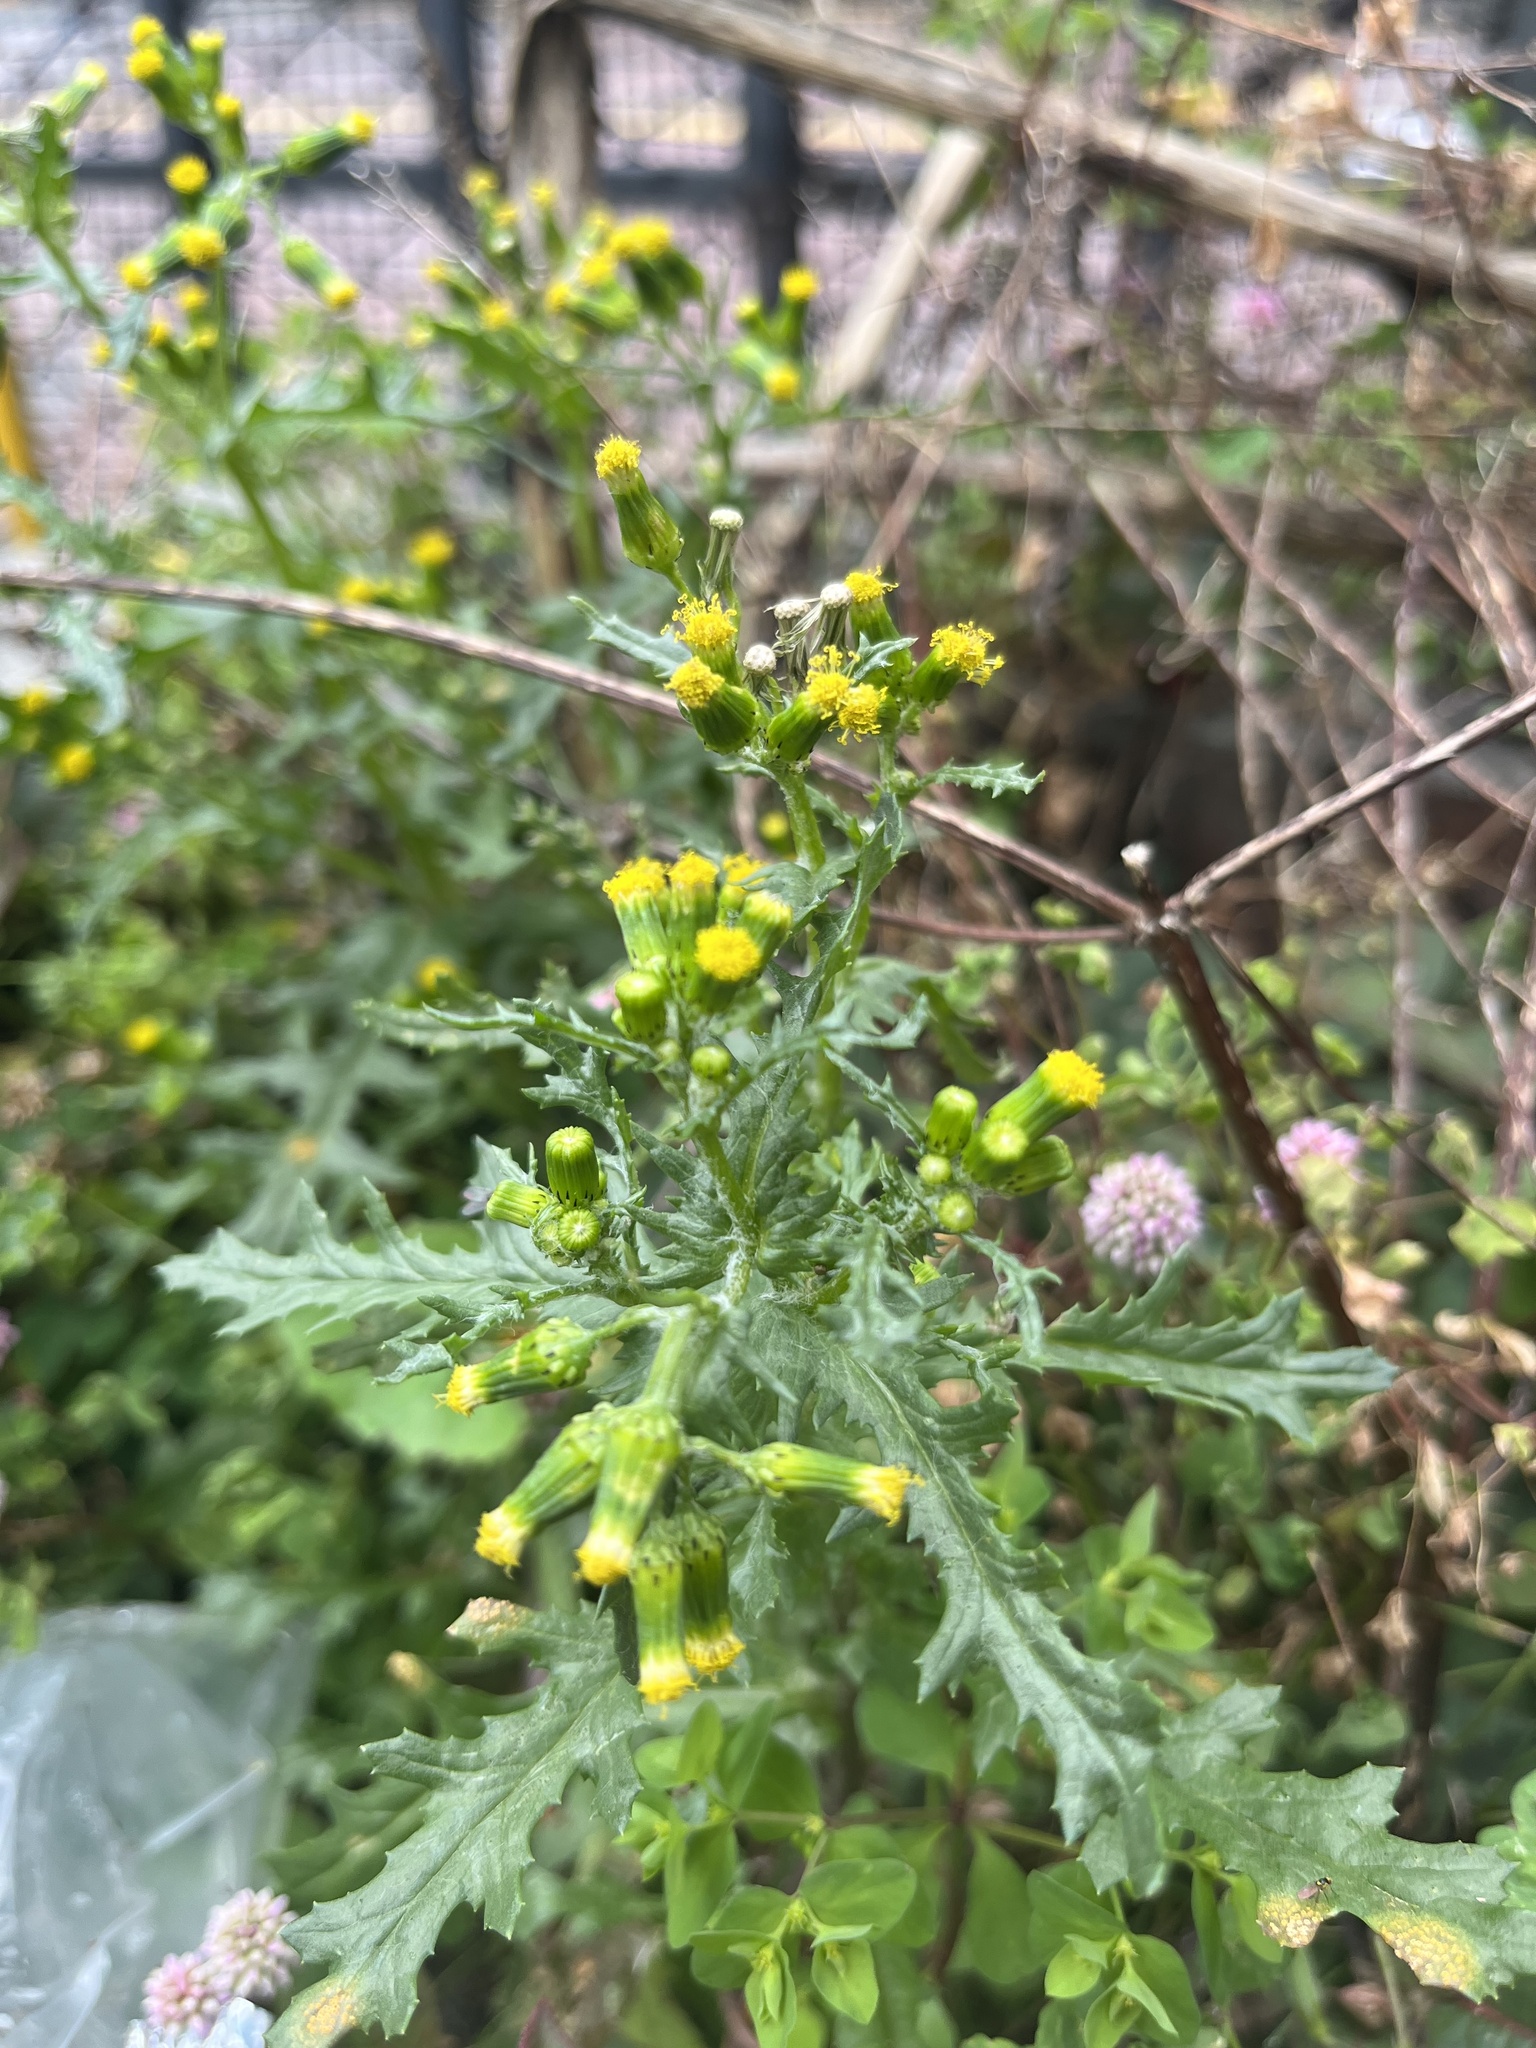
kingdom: Plantae
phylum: Tracheophyta
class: Magnoliopsida
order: Asterales
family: Asteraceae
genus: Senecio
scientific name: Senecio vulgaris
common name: Old-man-in-the-spring
